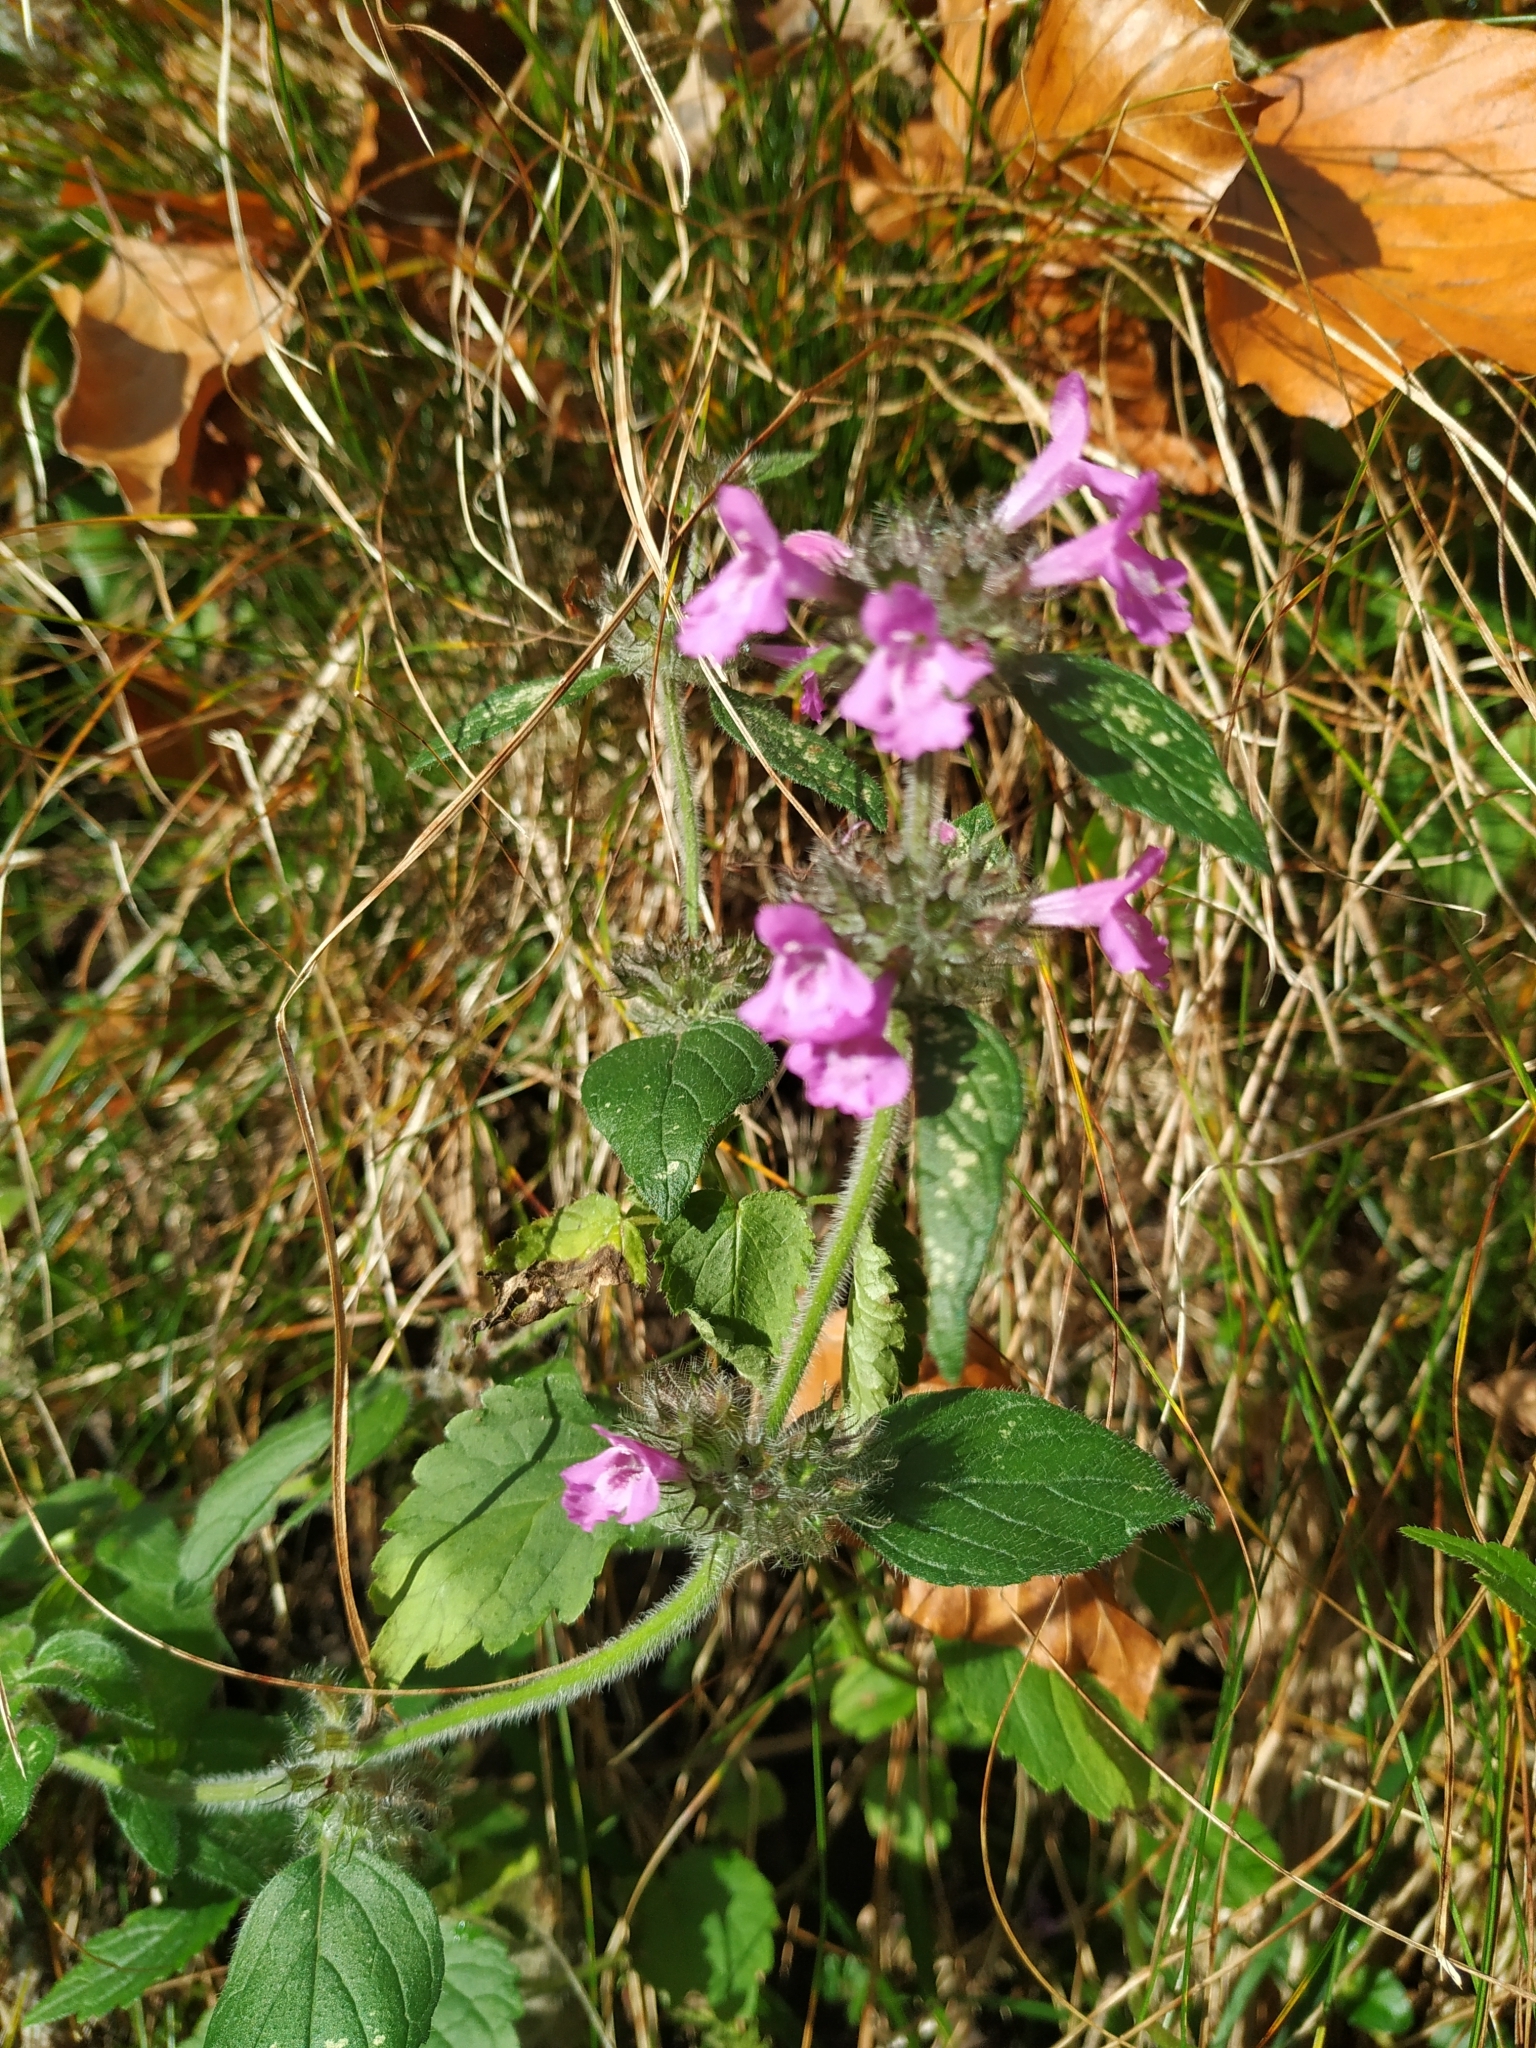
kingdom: Plantae
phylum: Tracheophyta
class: Magnoliopsida
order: Lamiales
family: Lamiaceae
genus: Clinopodium
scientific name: Clinopodium vulgare
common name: Wild basil
